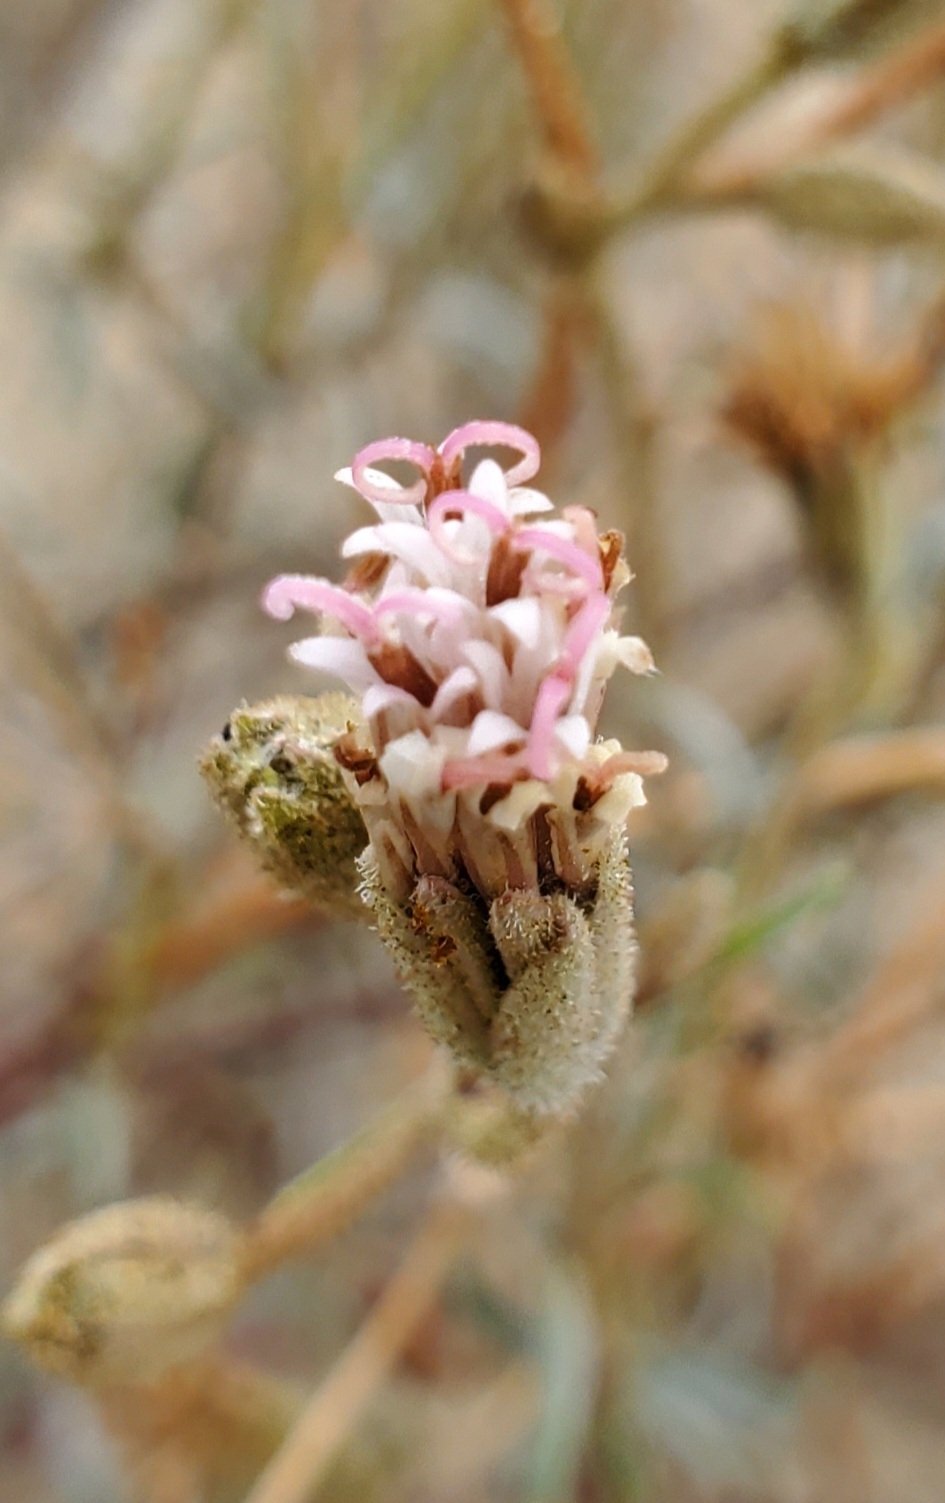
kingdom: Plantae
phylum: Tracheophyta
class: Magnoliopsida
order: Asterales
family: Asteraceae
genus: Palafoxia
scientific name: Palafoxia arida
